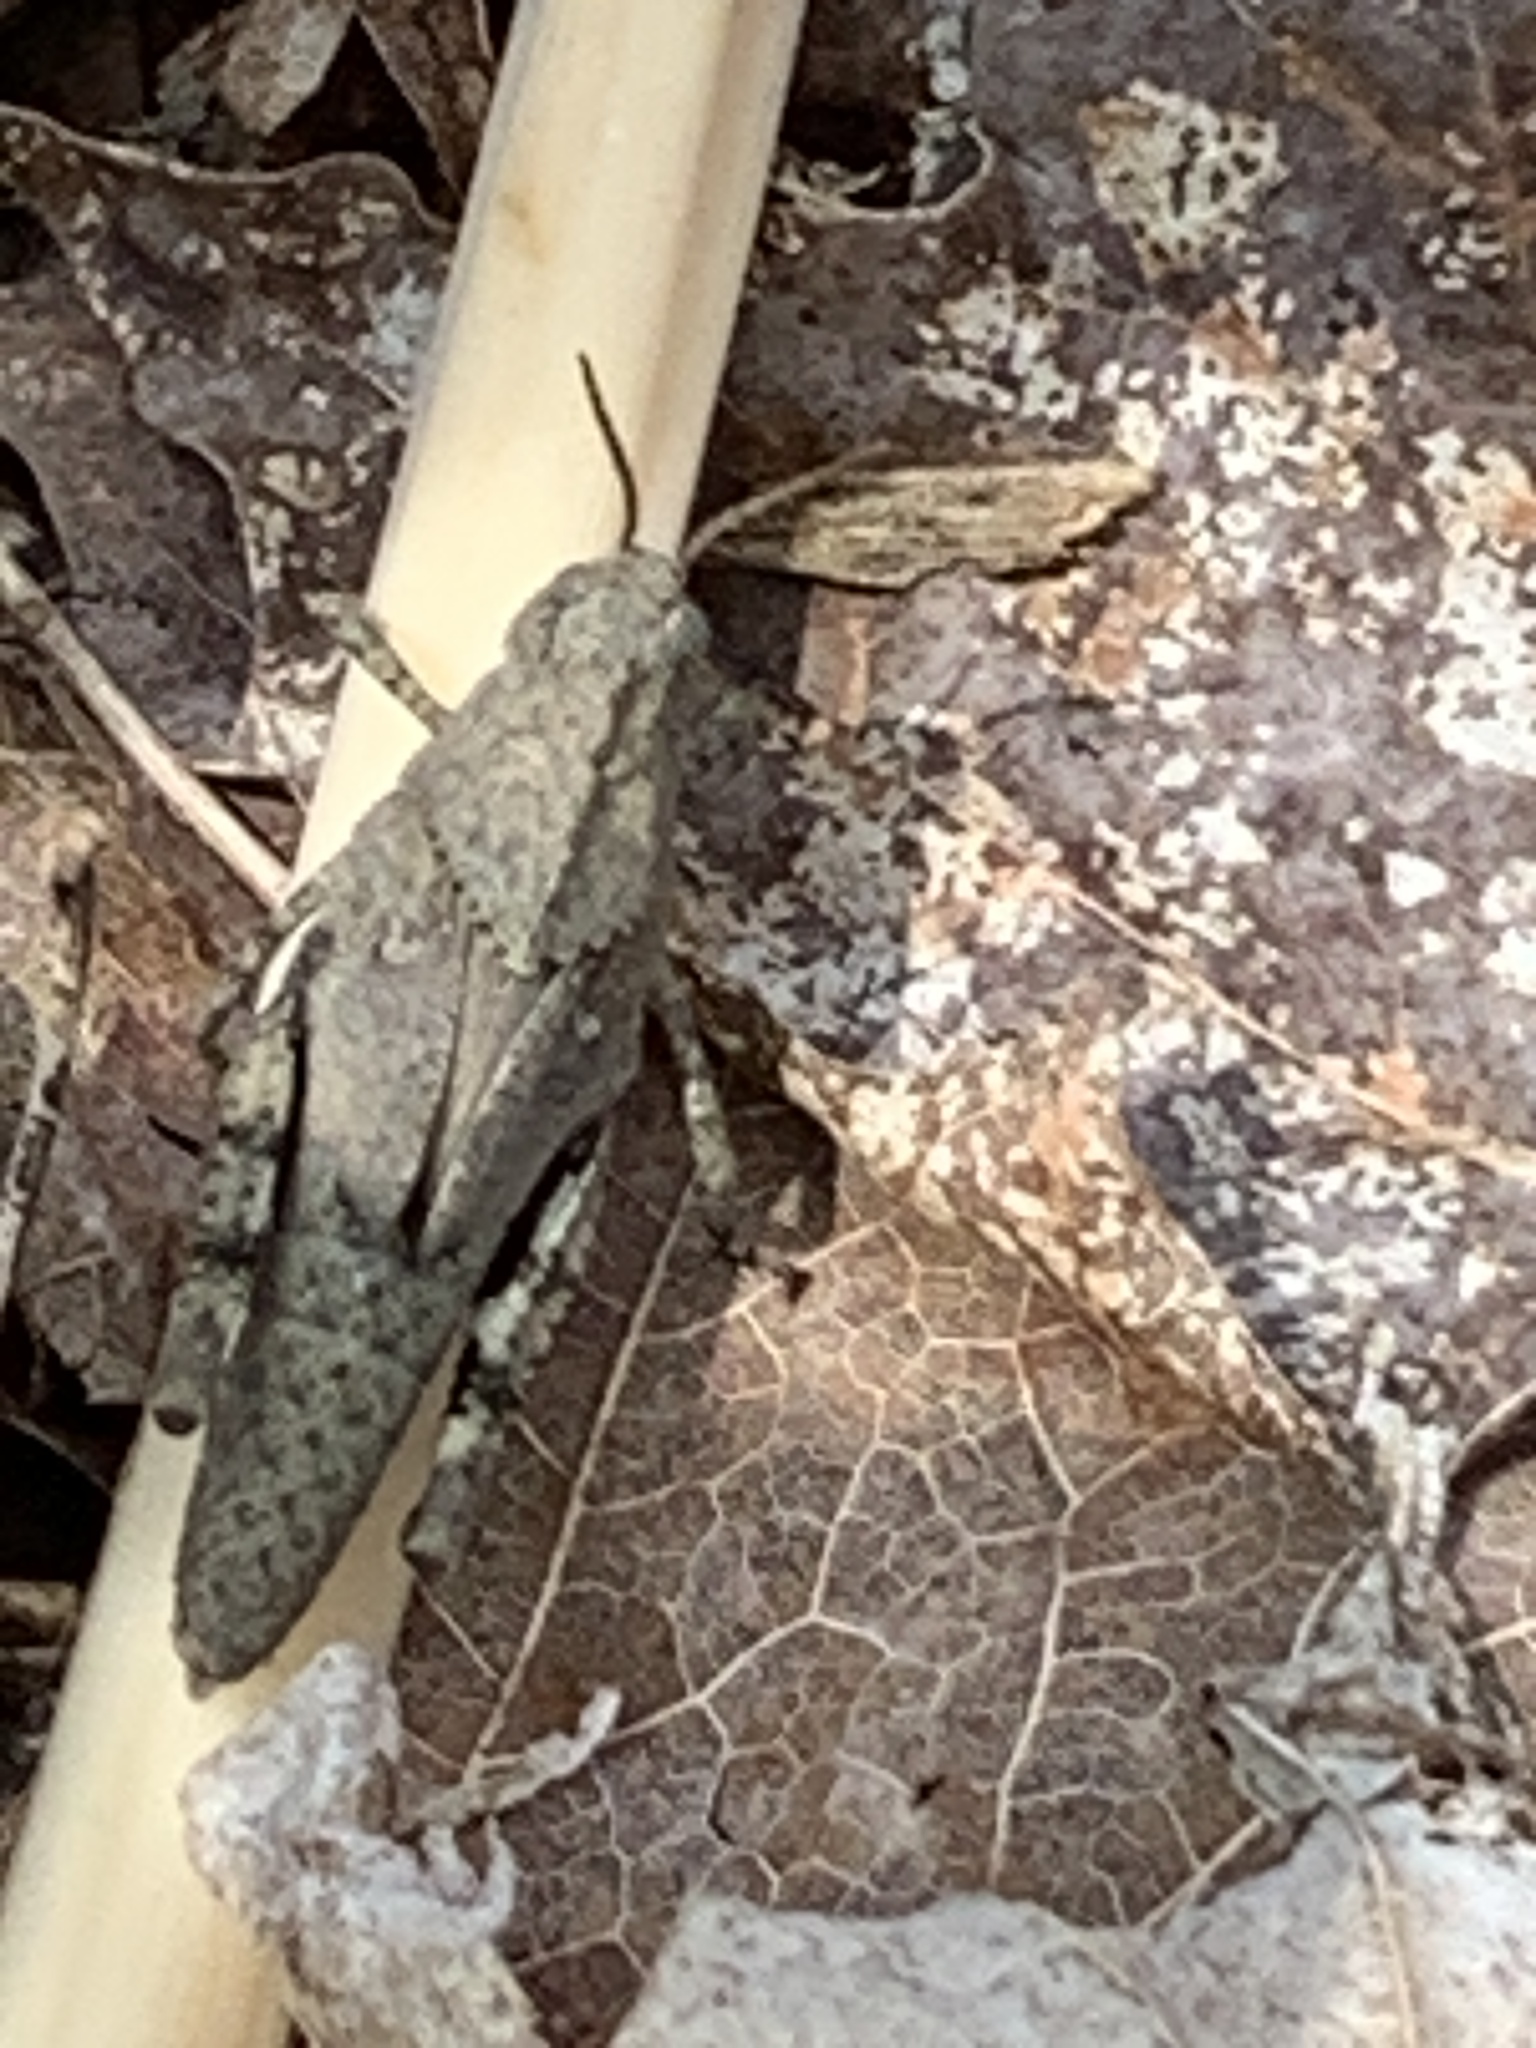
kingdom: Animalia
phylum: Arthropoda
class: Insecta
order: Orthoptera
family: Acrididae
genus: Dissosteira
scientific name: Dissosteira carolina
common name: Carolina grasshopper
